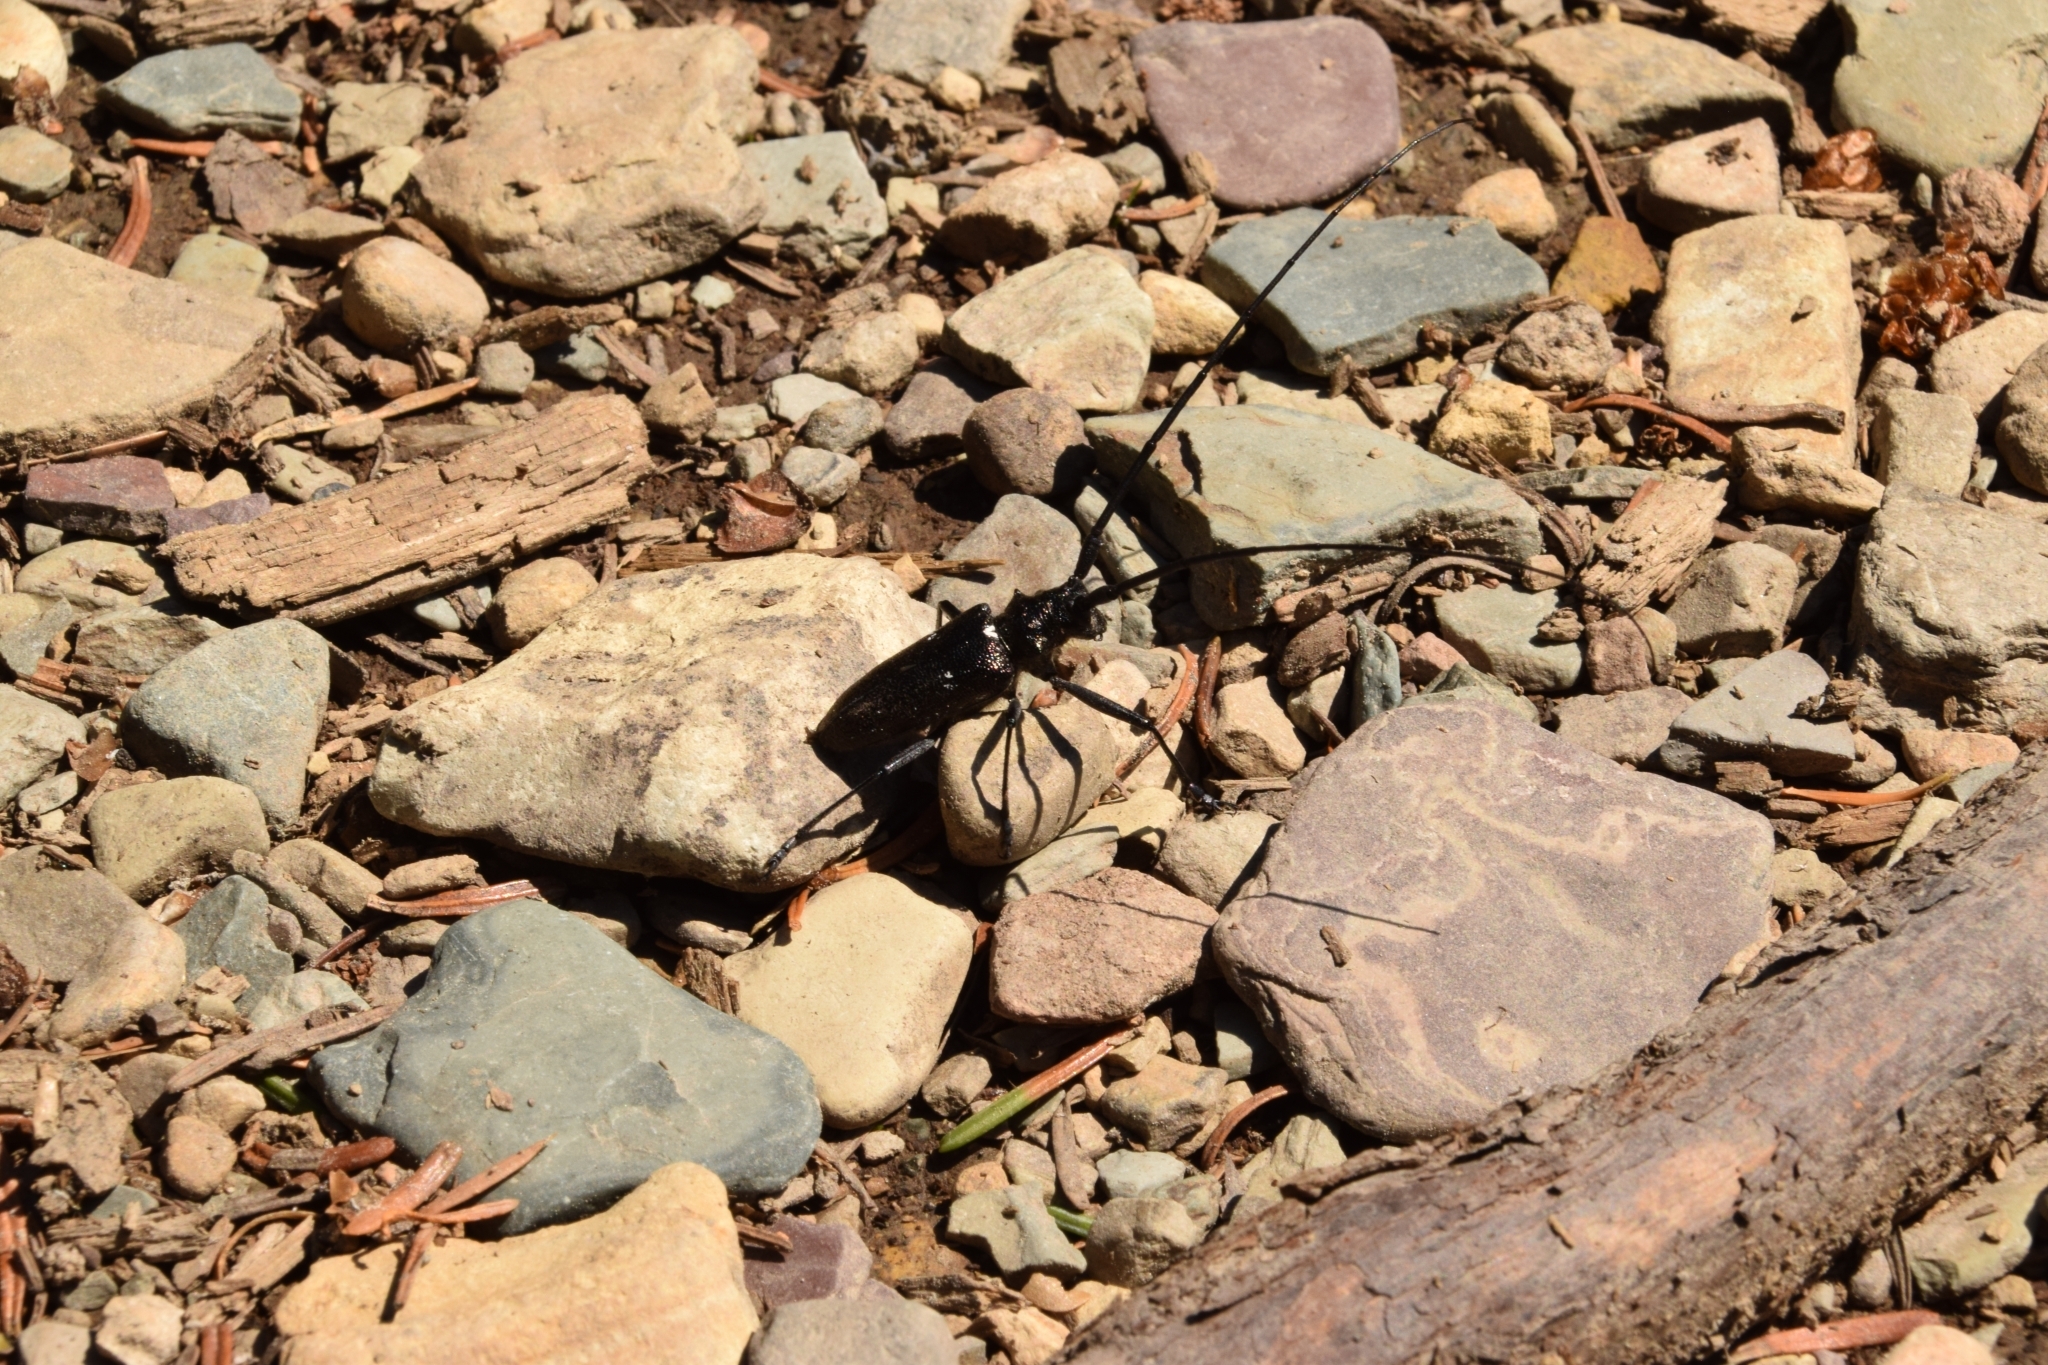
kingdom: Animalia
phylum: Arthropoda
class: Insecta
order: Coleoptera
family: Cerambycidae
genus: Monochamus
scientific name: Monochamus scutellatus
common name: White-spotted sawyer beetle
